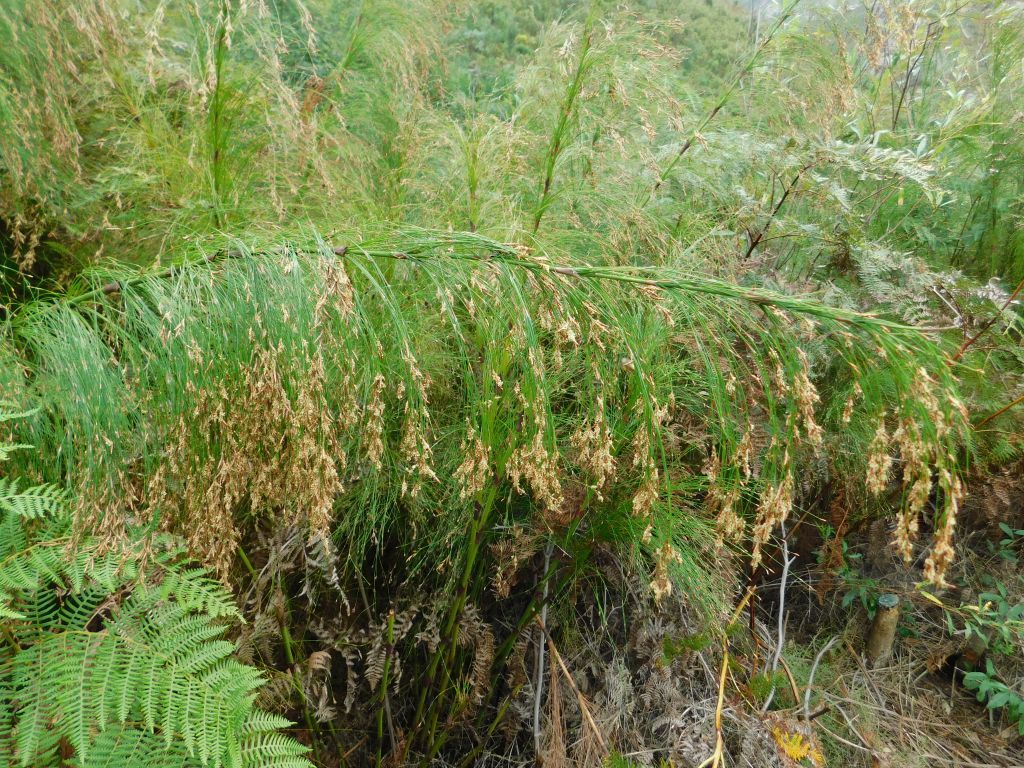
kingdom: Plantae
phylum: Tracheophyta
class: Liliopsida
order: Poales
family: Restionaceae
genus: Restio
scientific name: Restio subverticillatus
